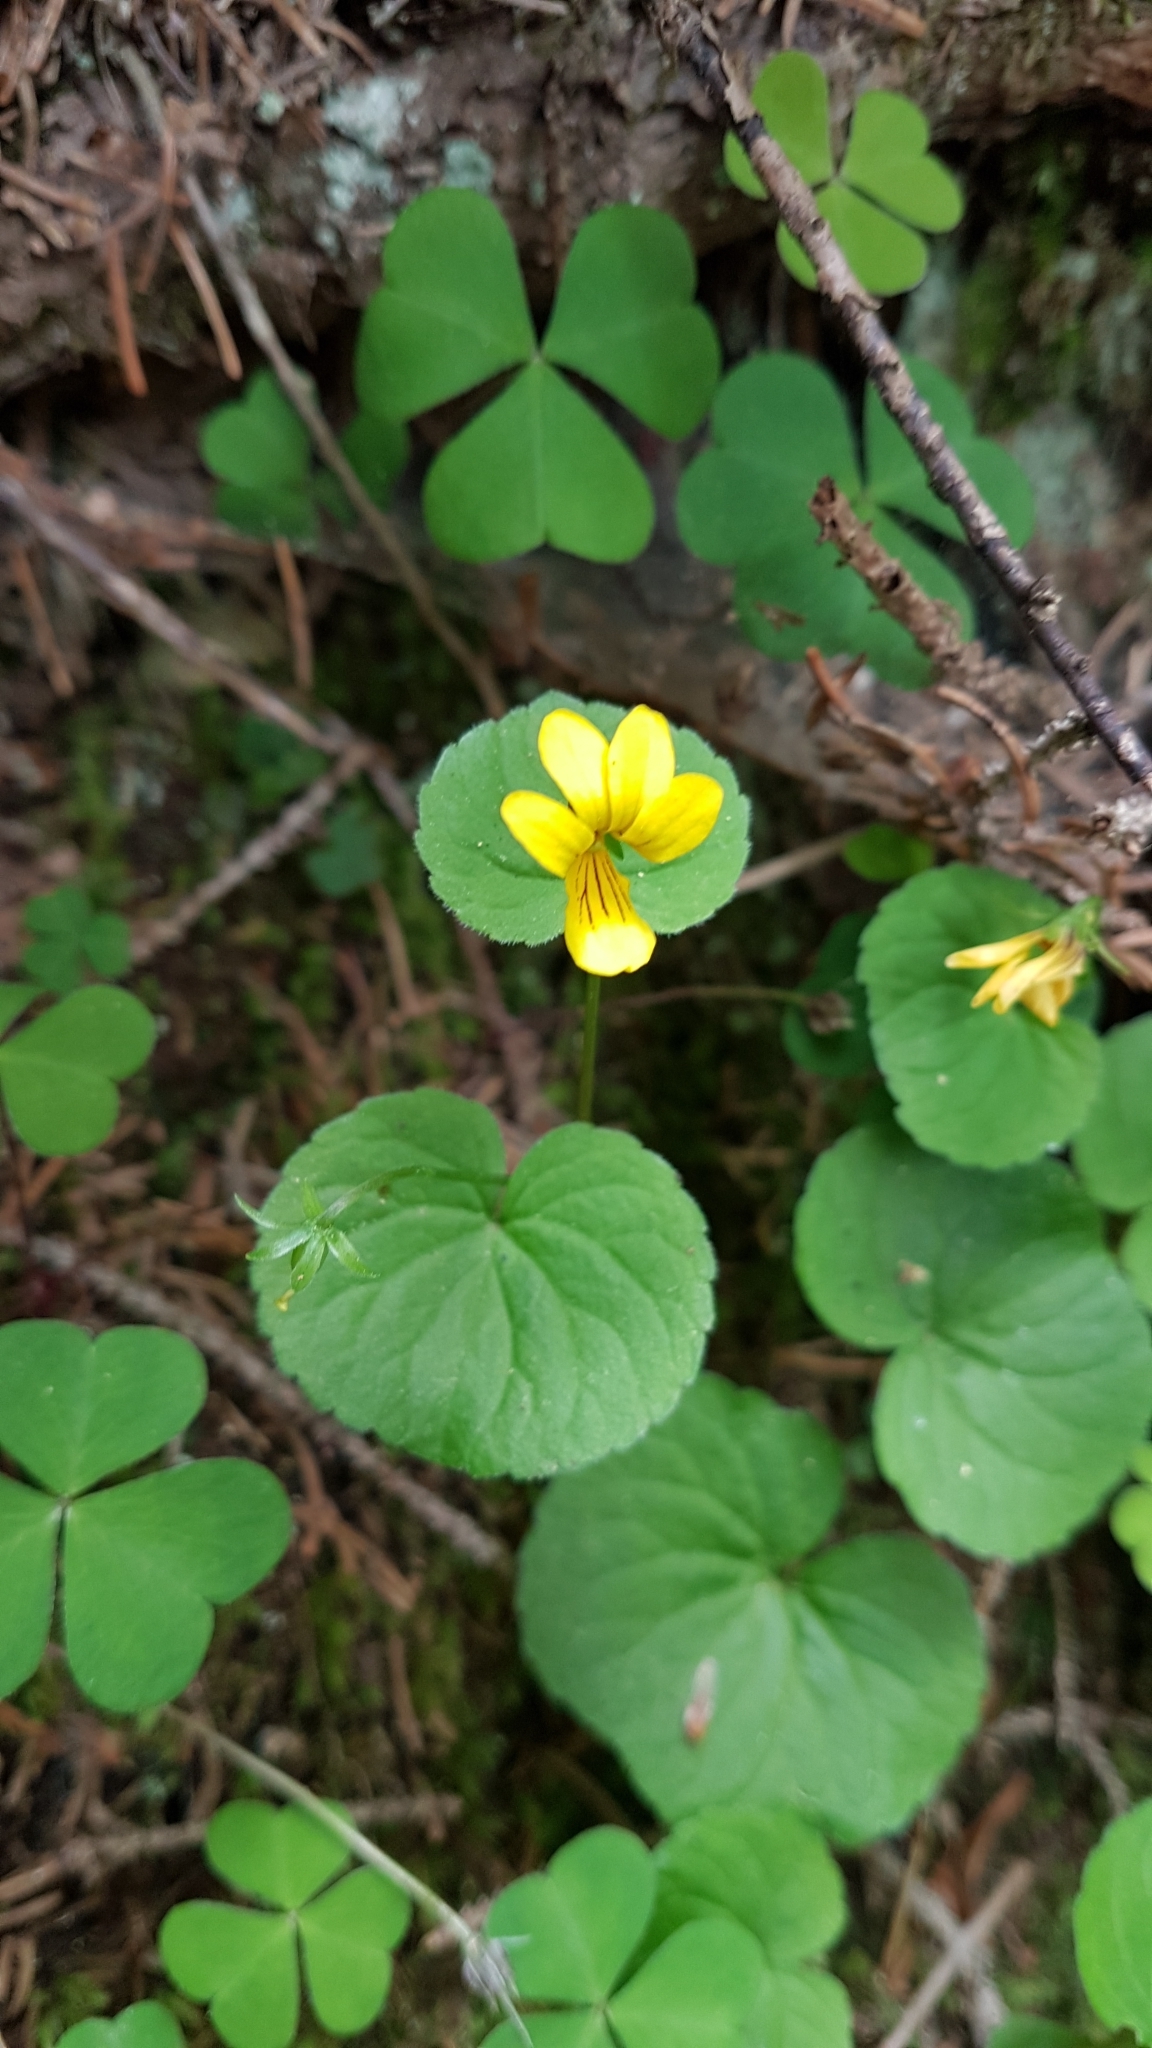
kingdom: Plantae
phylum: Tracheophyta
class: Magnoliopsida
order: Malpighiales
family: Violaceae
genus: Viola
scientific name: Viola biflora
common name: Alpine yellow violet
